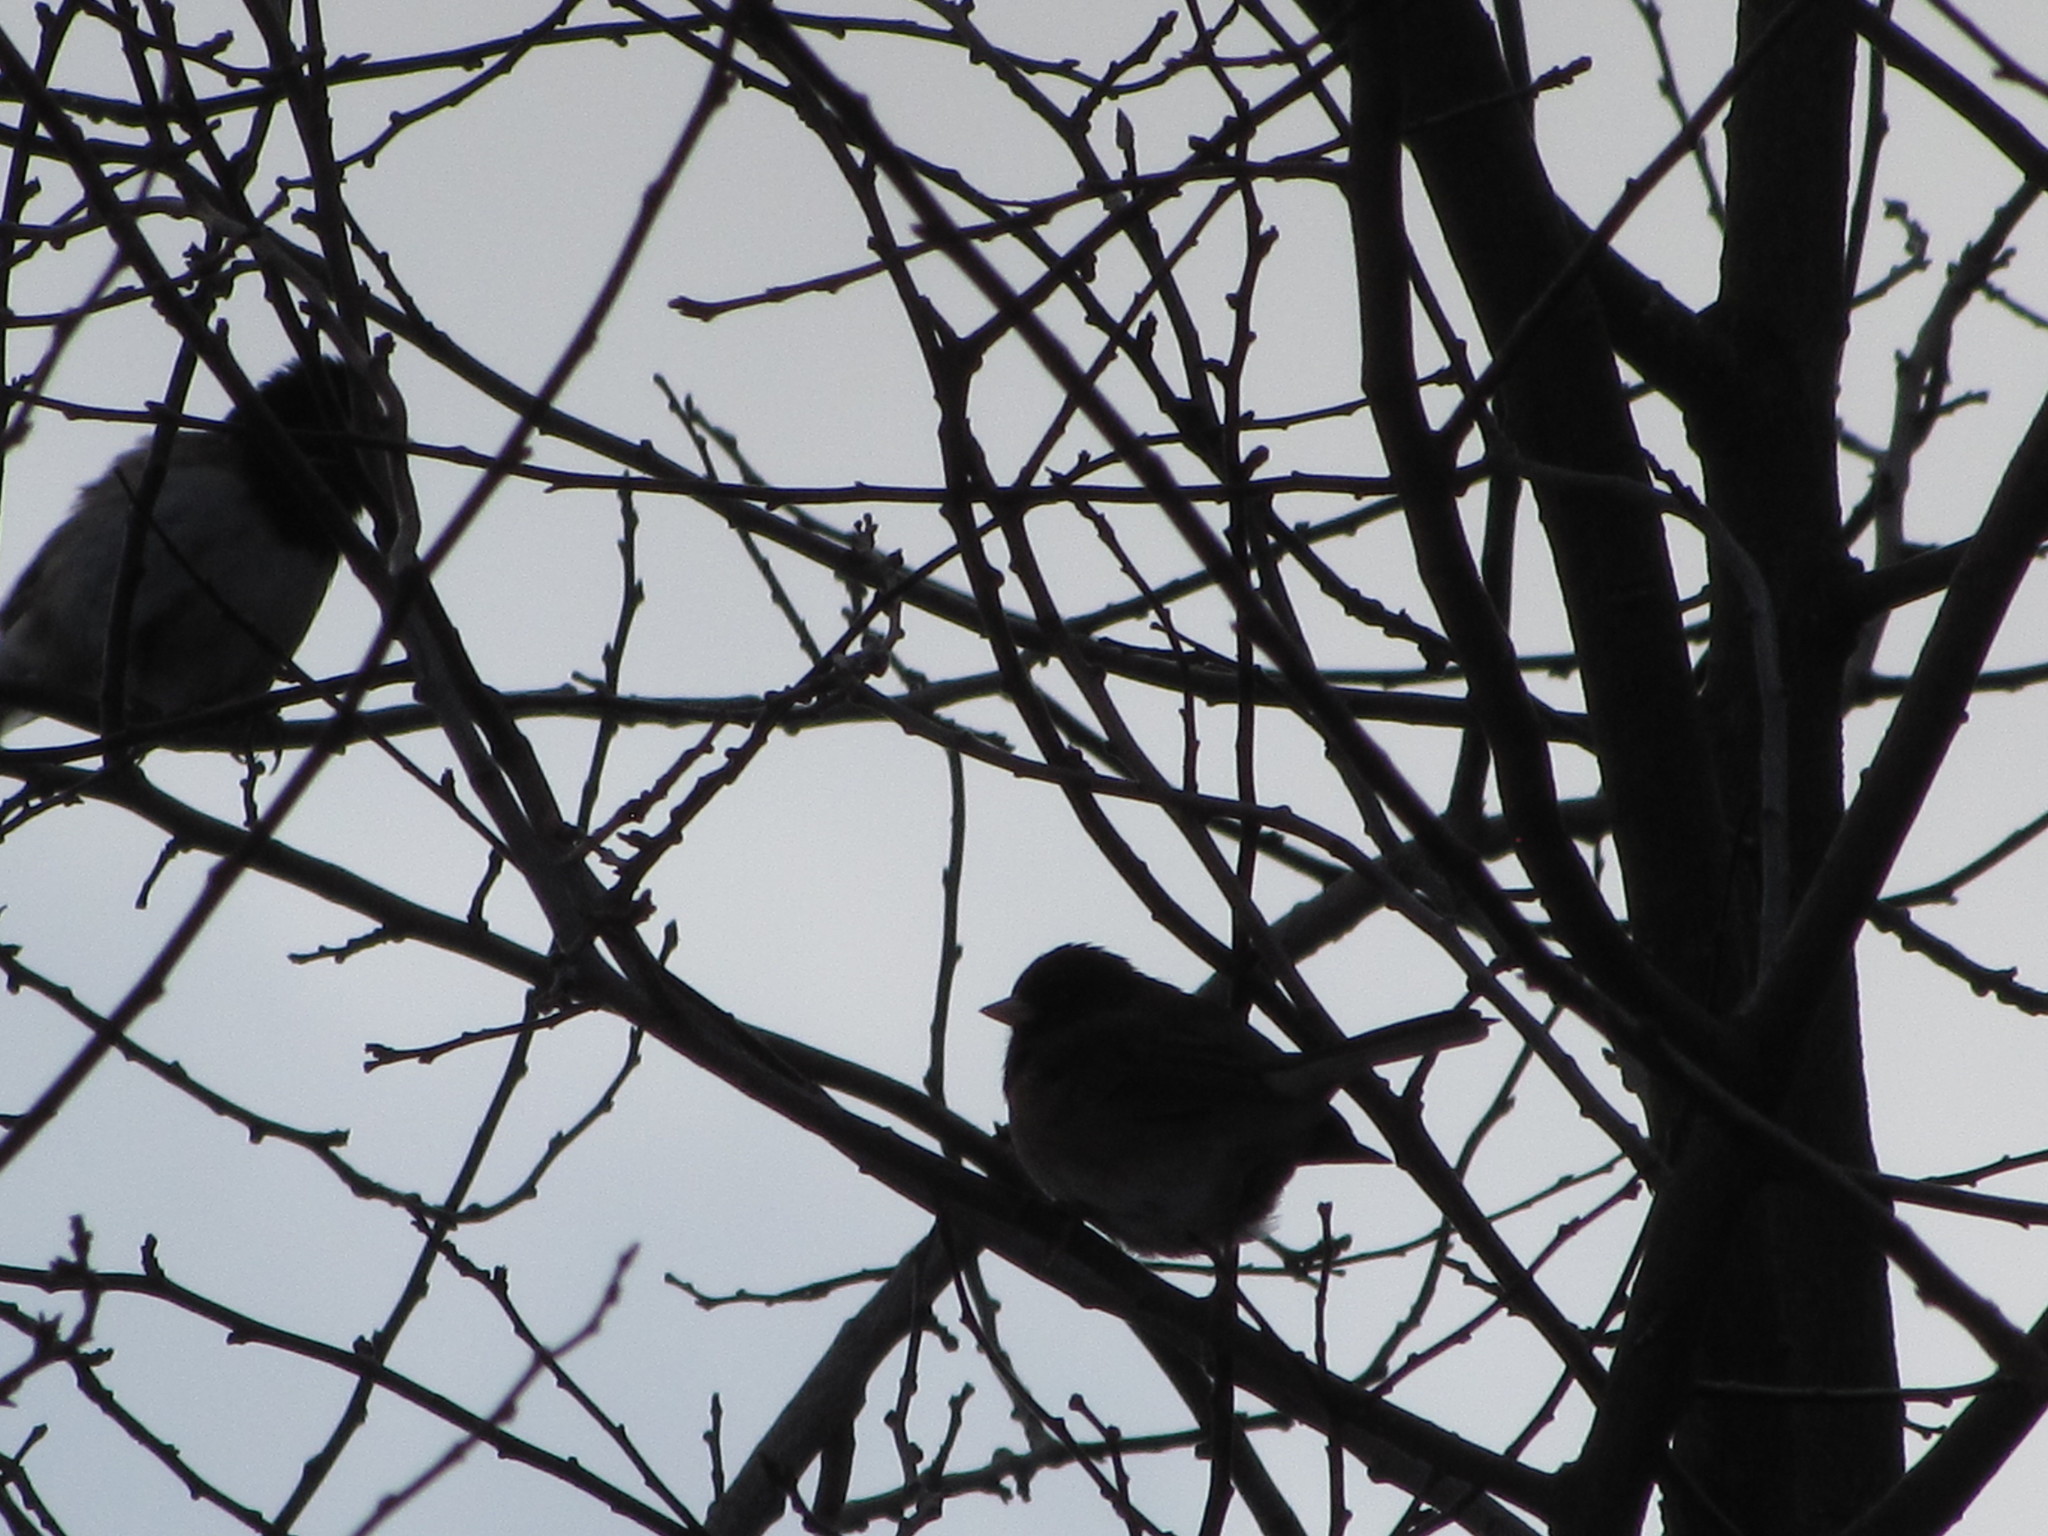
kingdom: Animalia
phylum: Chordata
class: Aves
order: Passeriformes
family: Passerellidae
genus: Junco
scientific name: Junco hyemalis
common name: Dark-eyed junco
